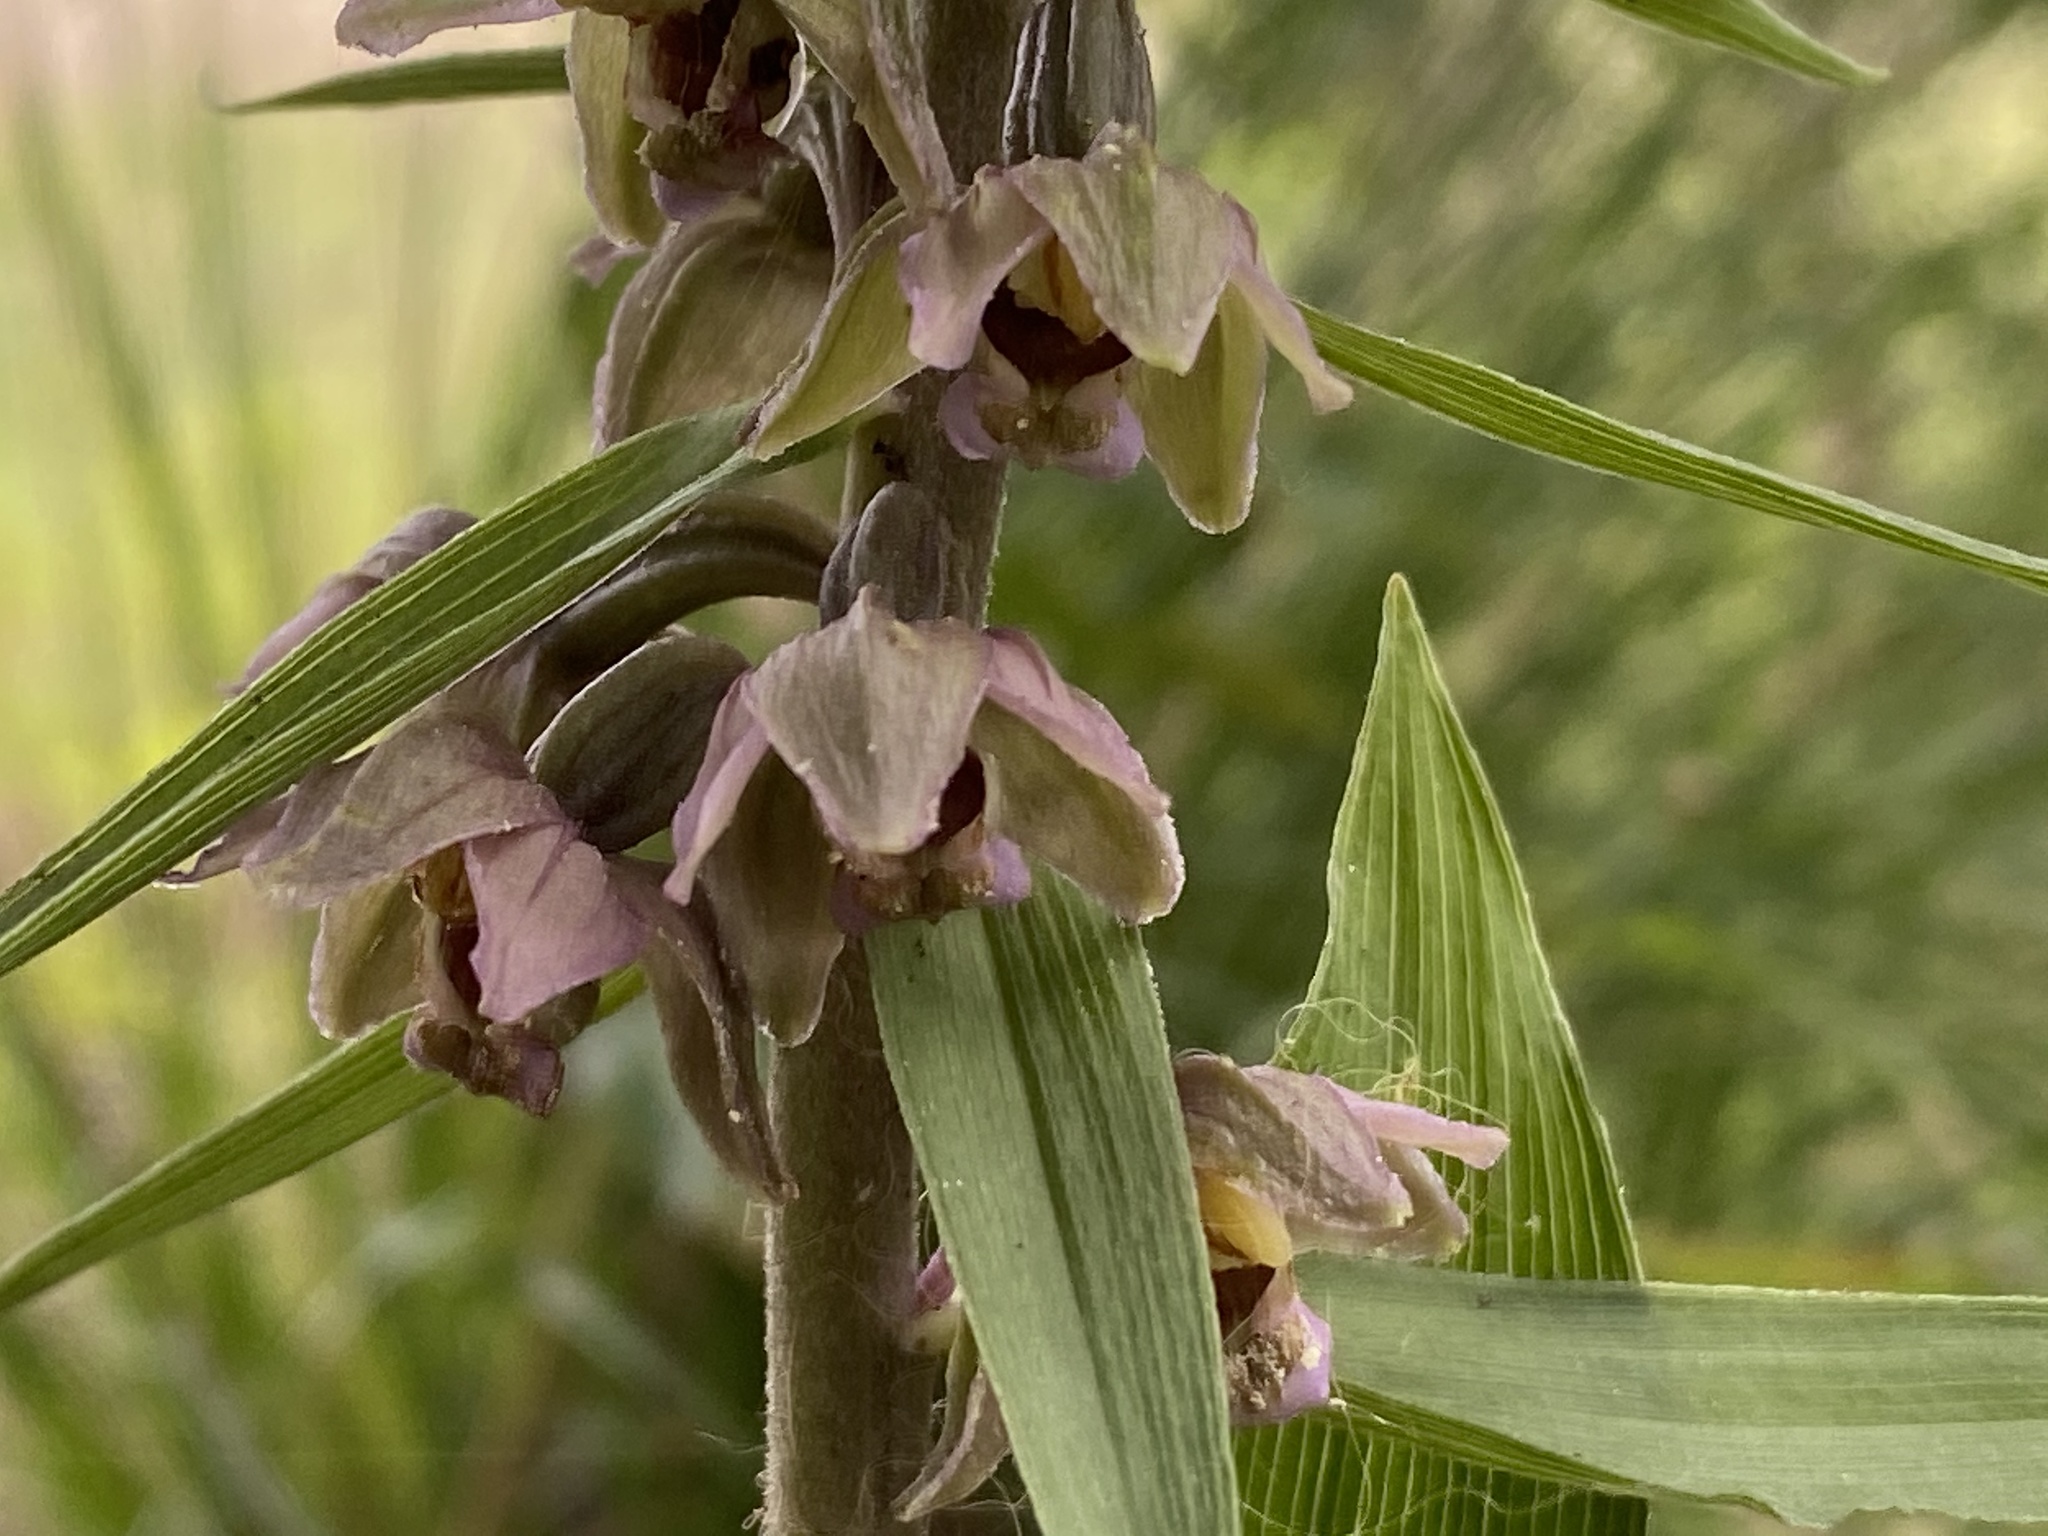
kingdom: Plantae
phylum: Tracheophyta
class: Liliopsida
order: Asparagales
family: Orchidaceae
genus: Epipactis
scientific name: Epipactis helleborine
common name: Broad-leaved helleborine
